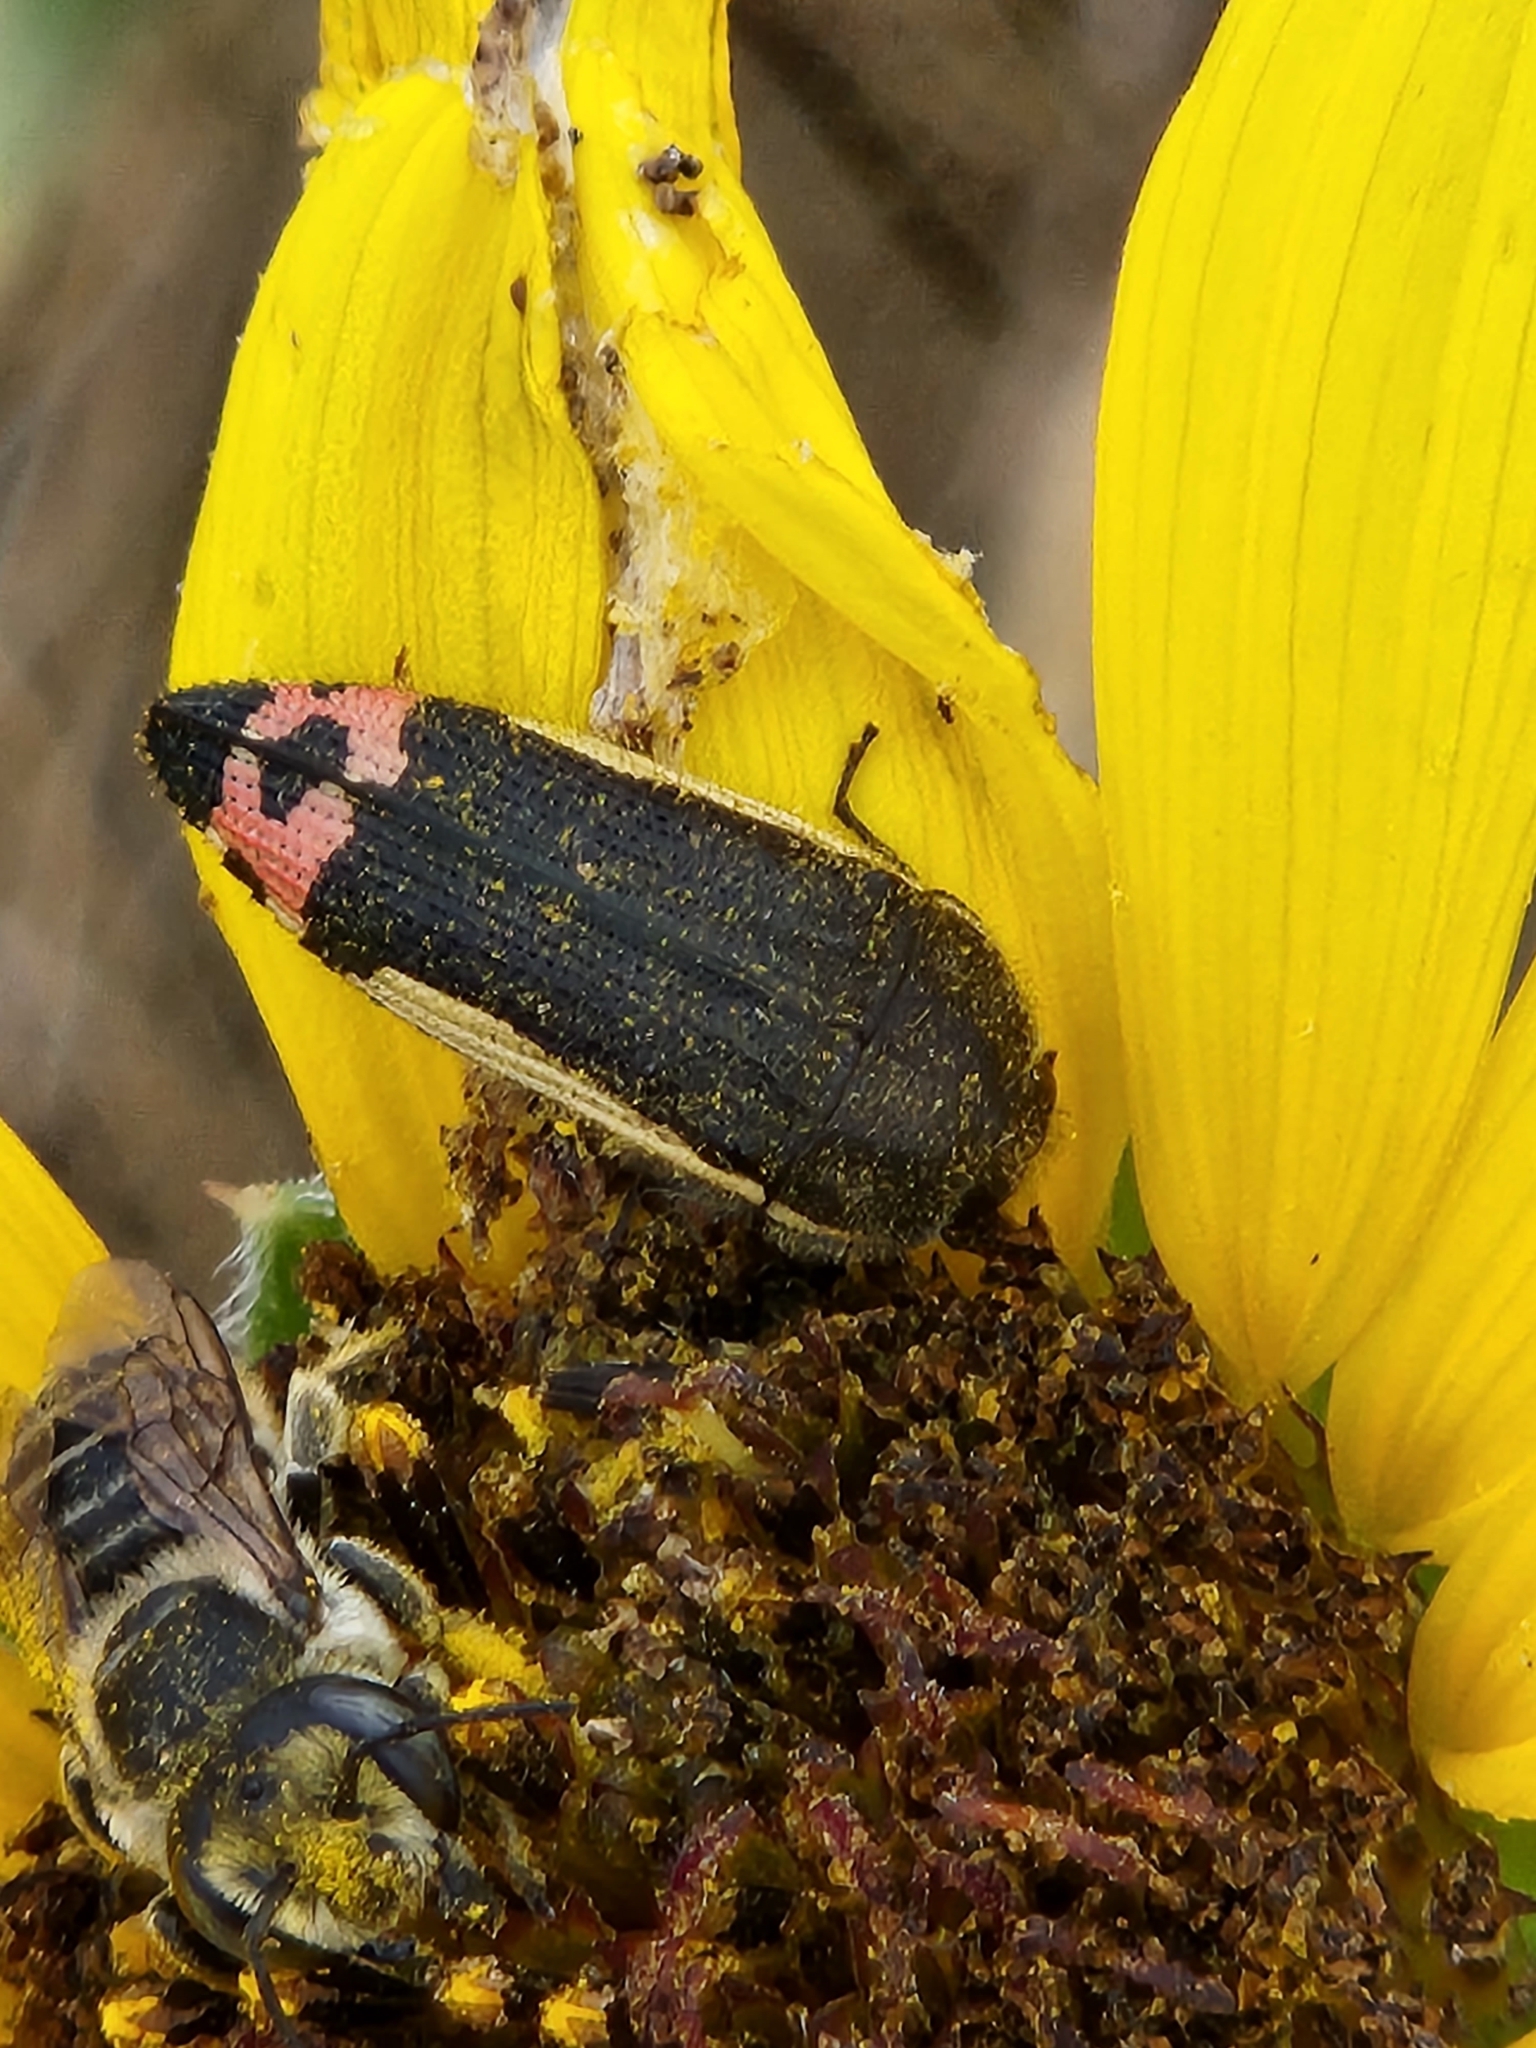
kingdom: Animalia
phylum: Arthropoda
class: Insecta
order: Coleoptera
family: Buprestidae
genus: Acmaeodera
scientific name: Acmaeodera flavomarginata
